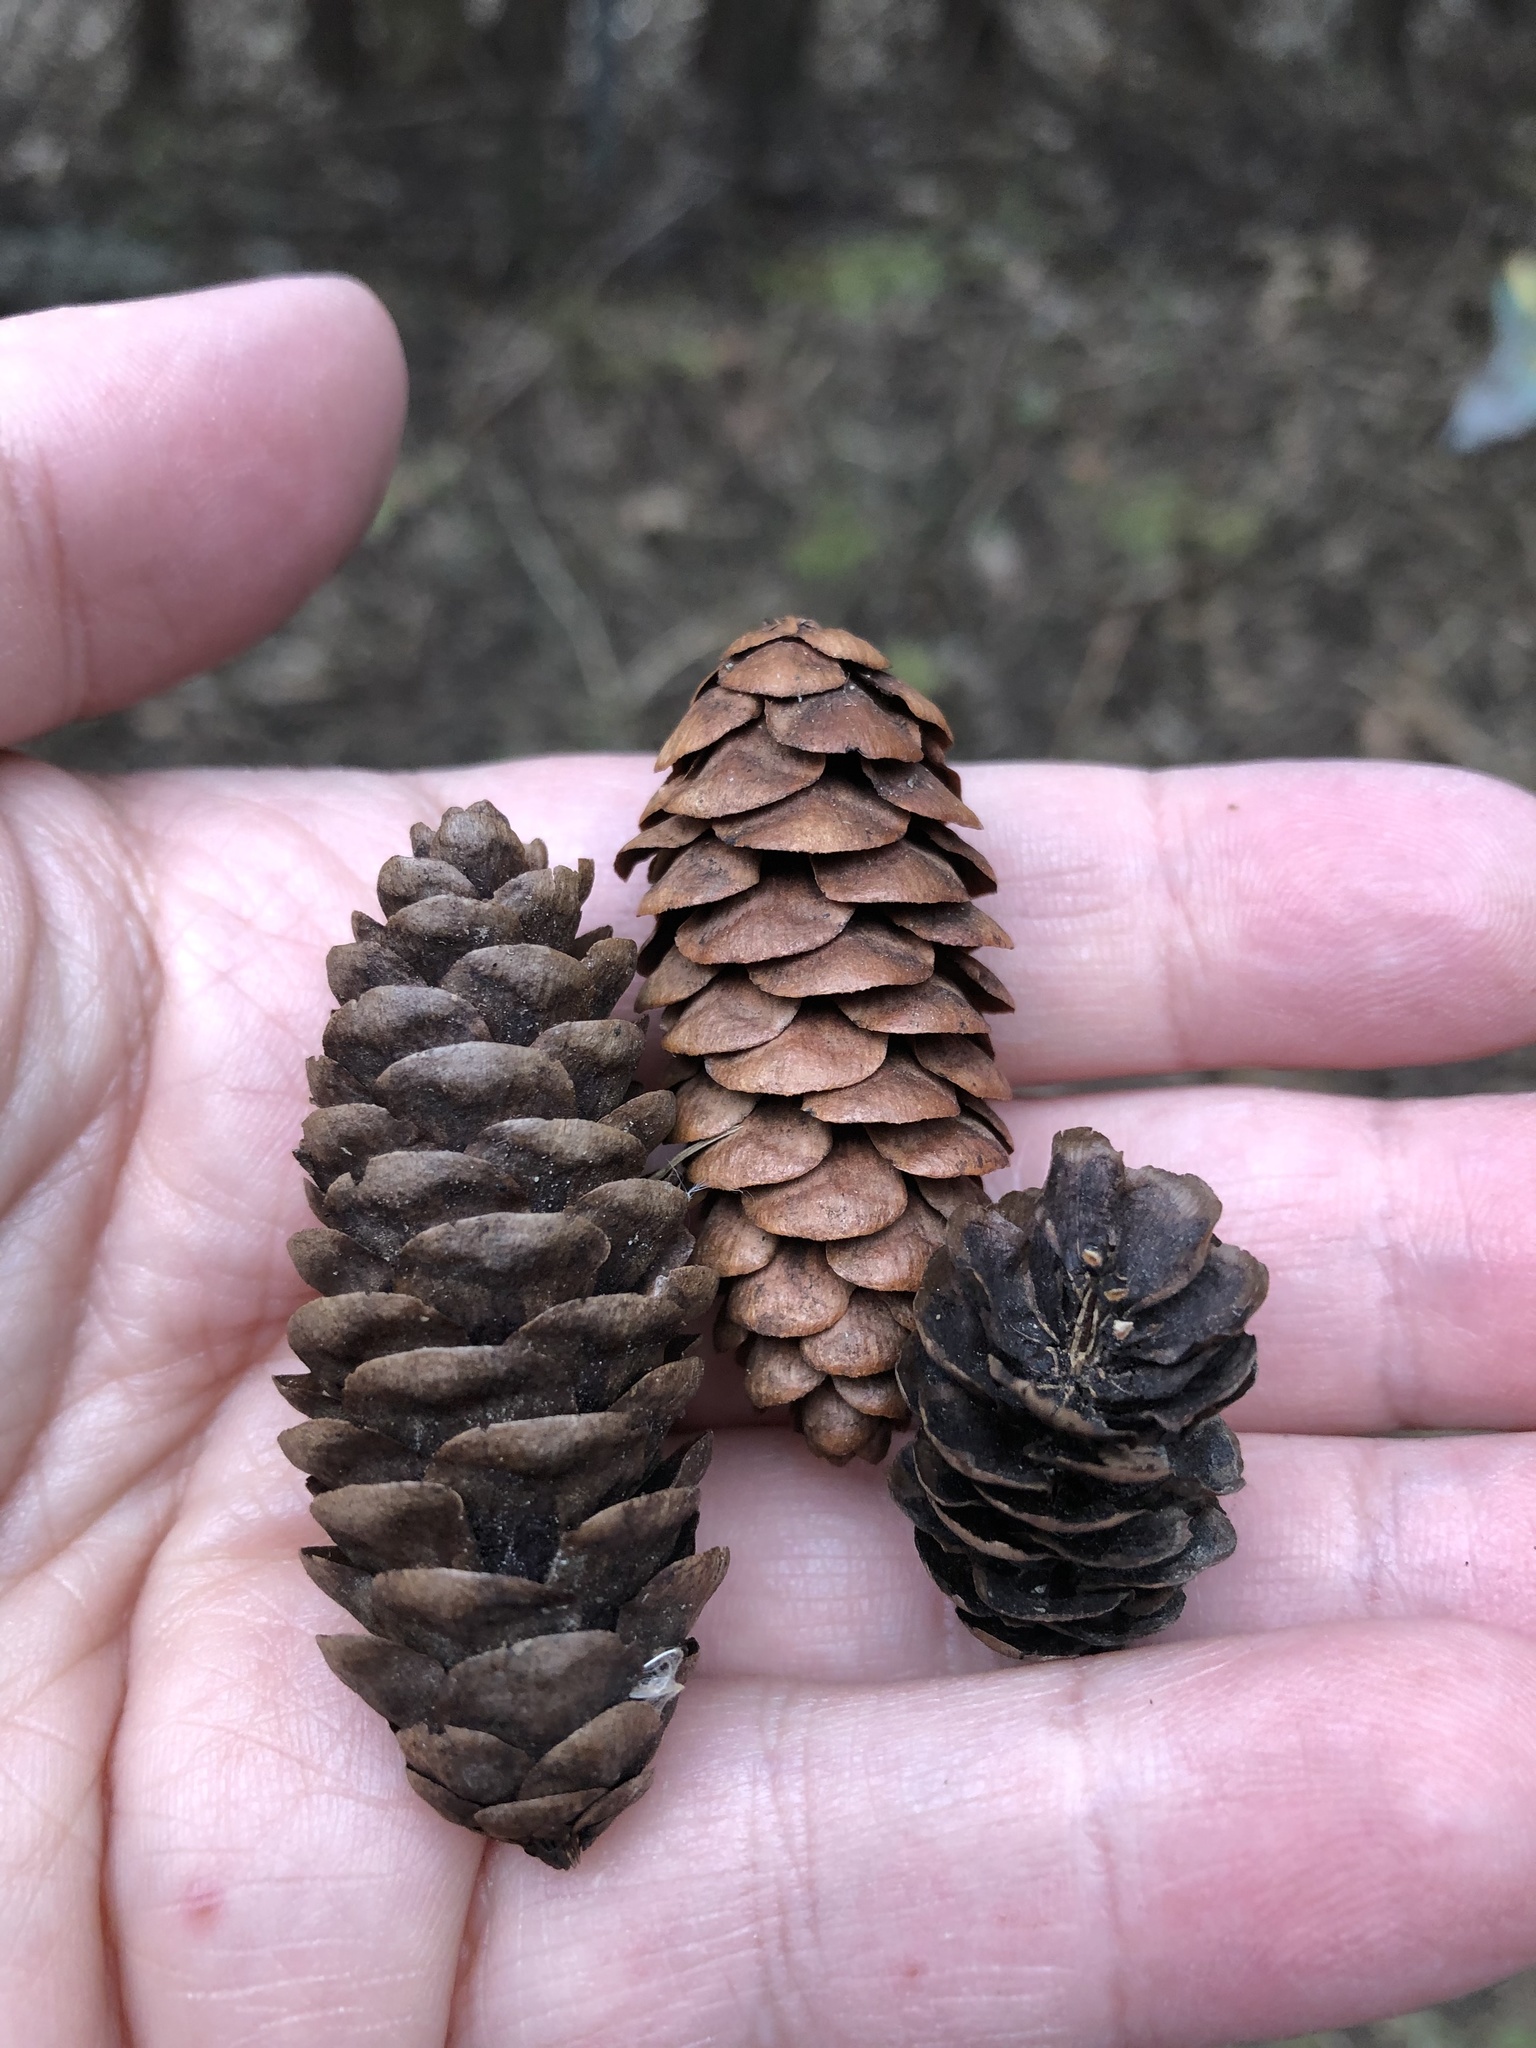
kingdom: Plantae
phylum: Tracheophyta
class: Pinopsida
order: Pinales
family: Pinaceae
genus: Picea
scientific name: Picea glauca
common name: White spruce
